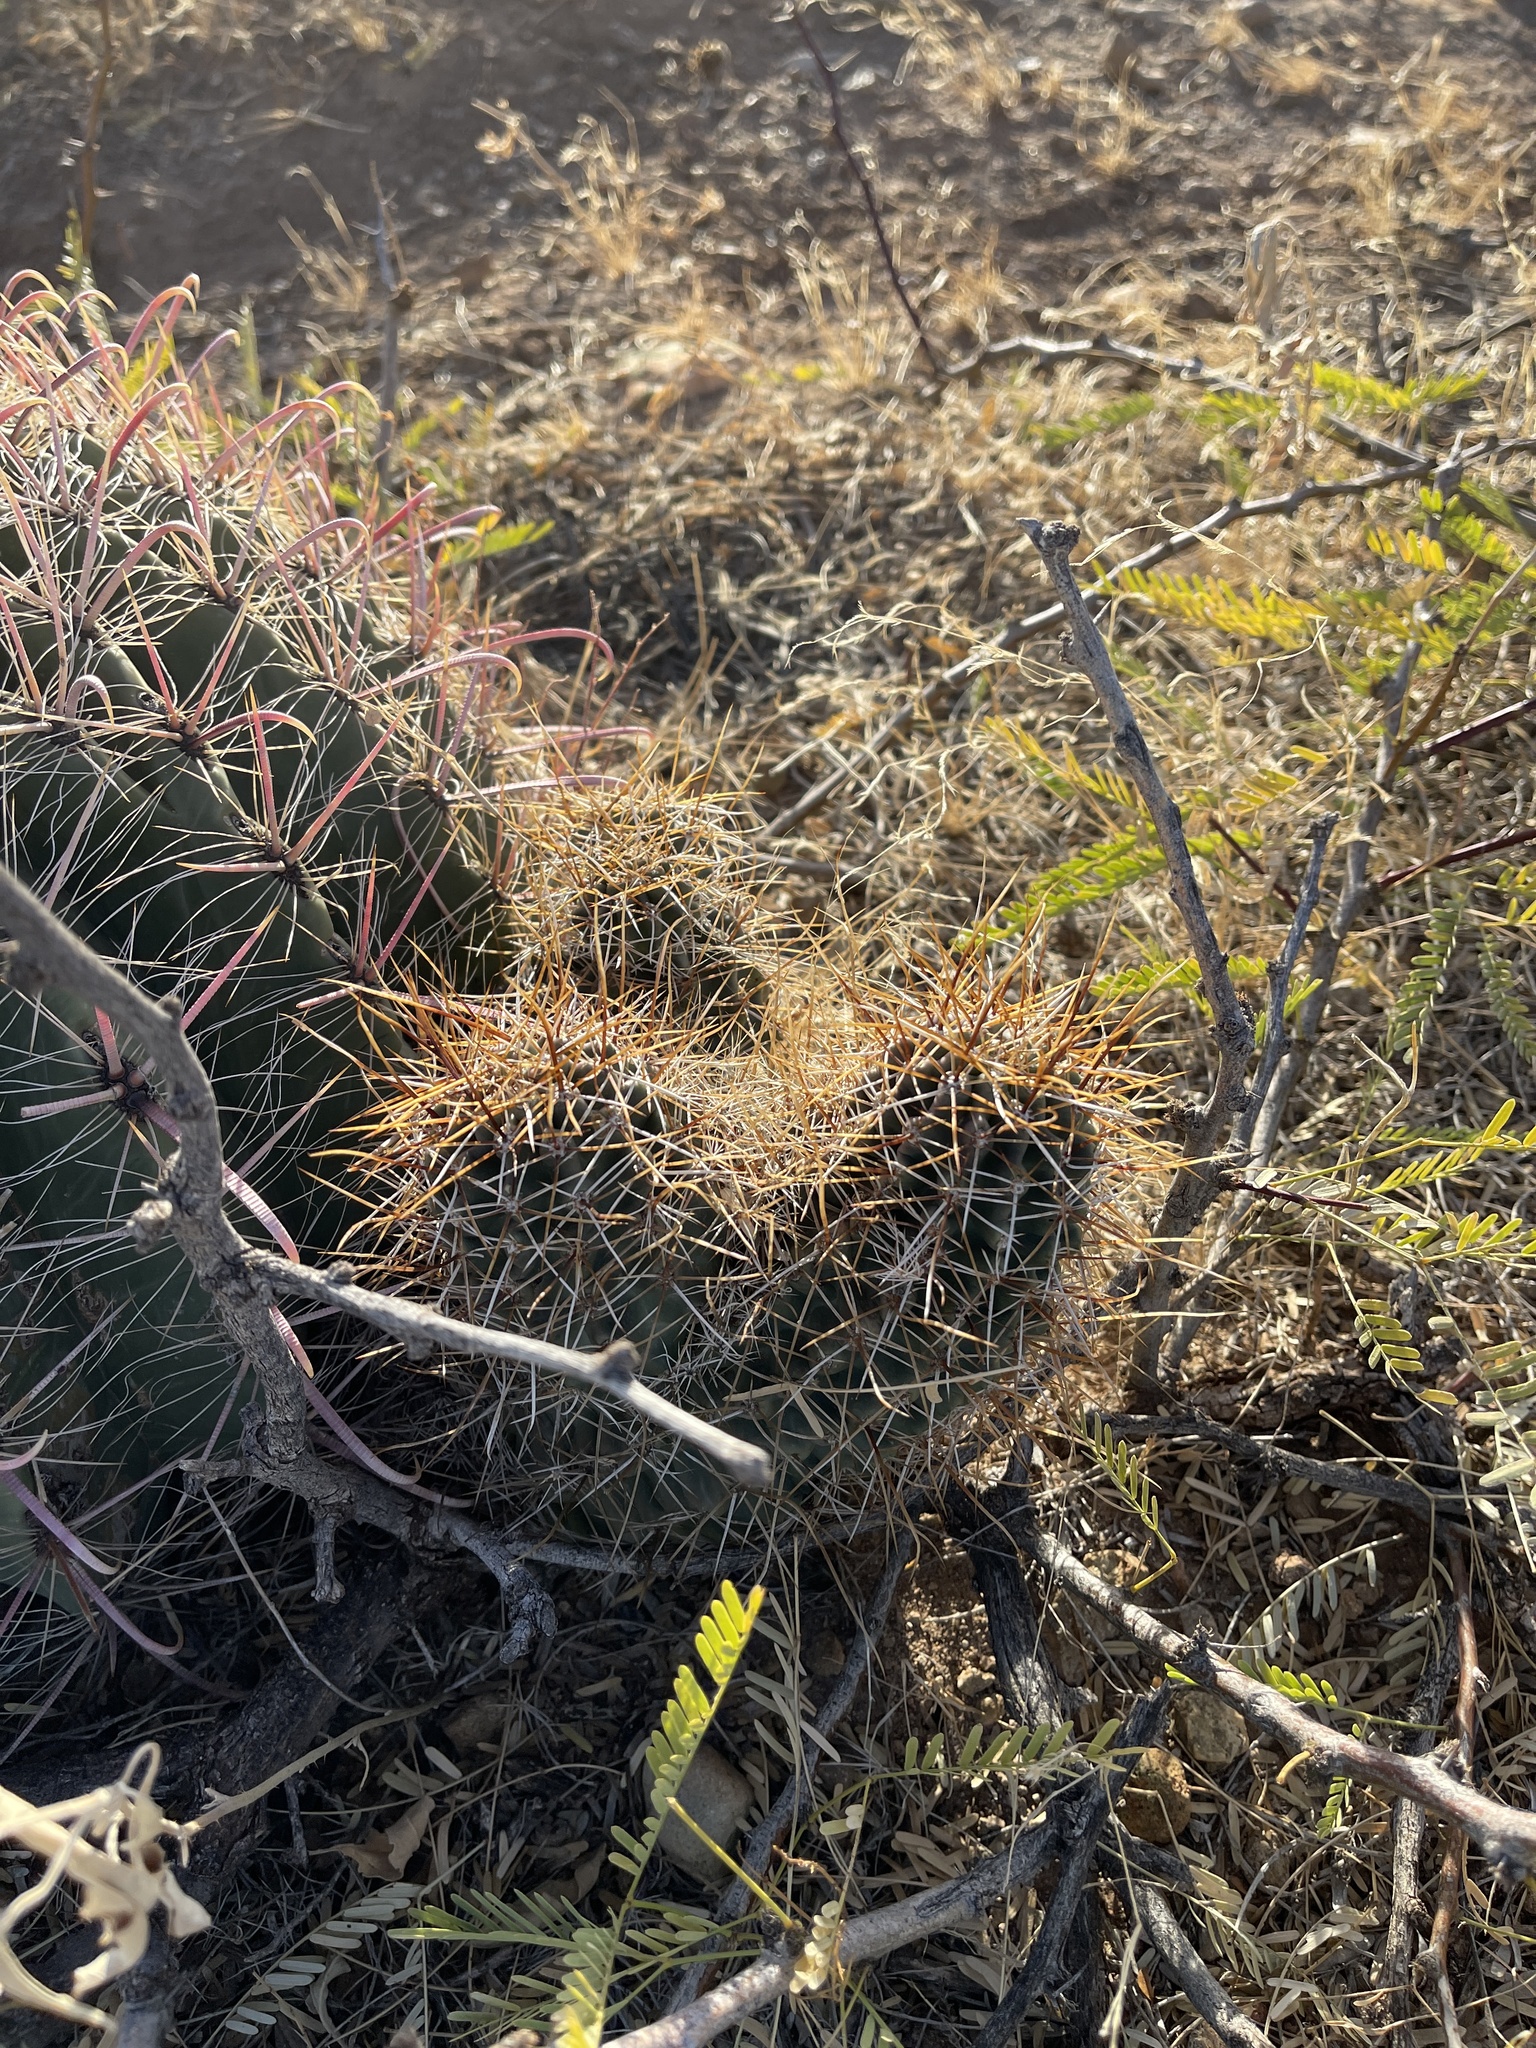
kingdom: Plantae
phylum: Tracheophyta
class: Magnoliopsida
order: Caryophyllales
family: Cactaceae
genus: Echinocereus
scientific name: Echinocereus fendleri
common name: Fendler's hedgehog cactus
